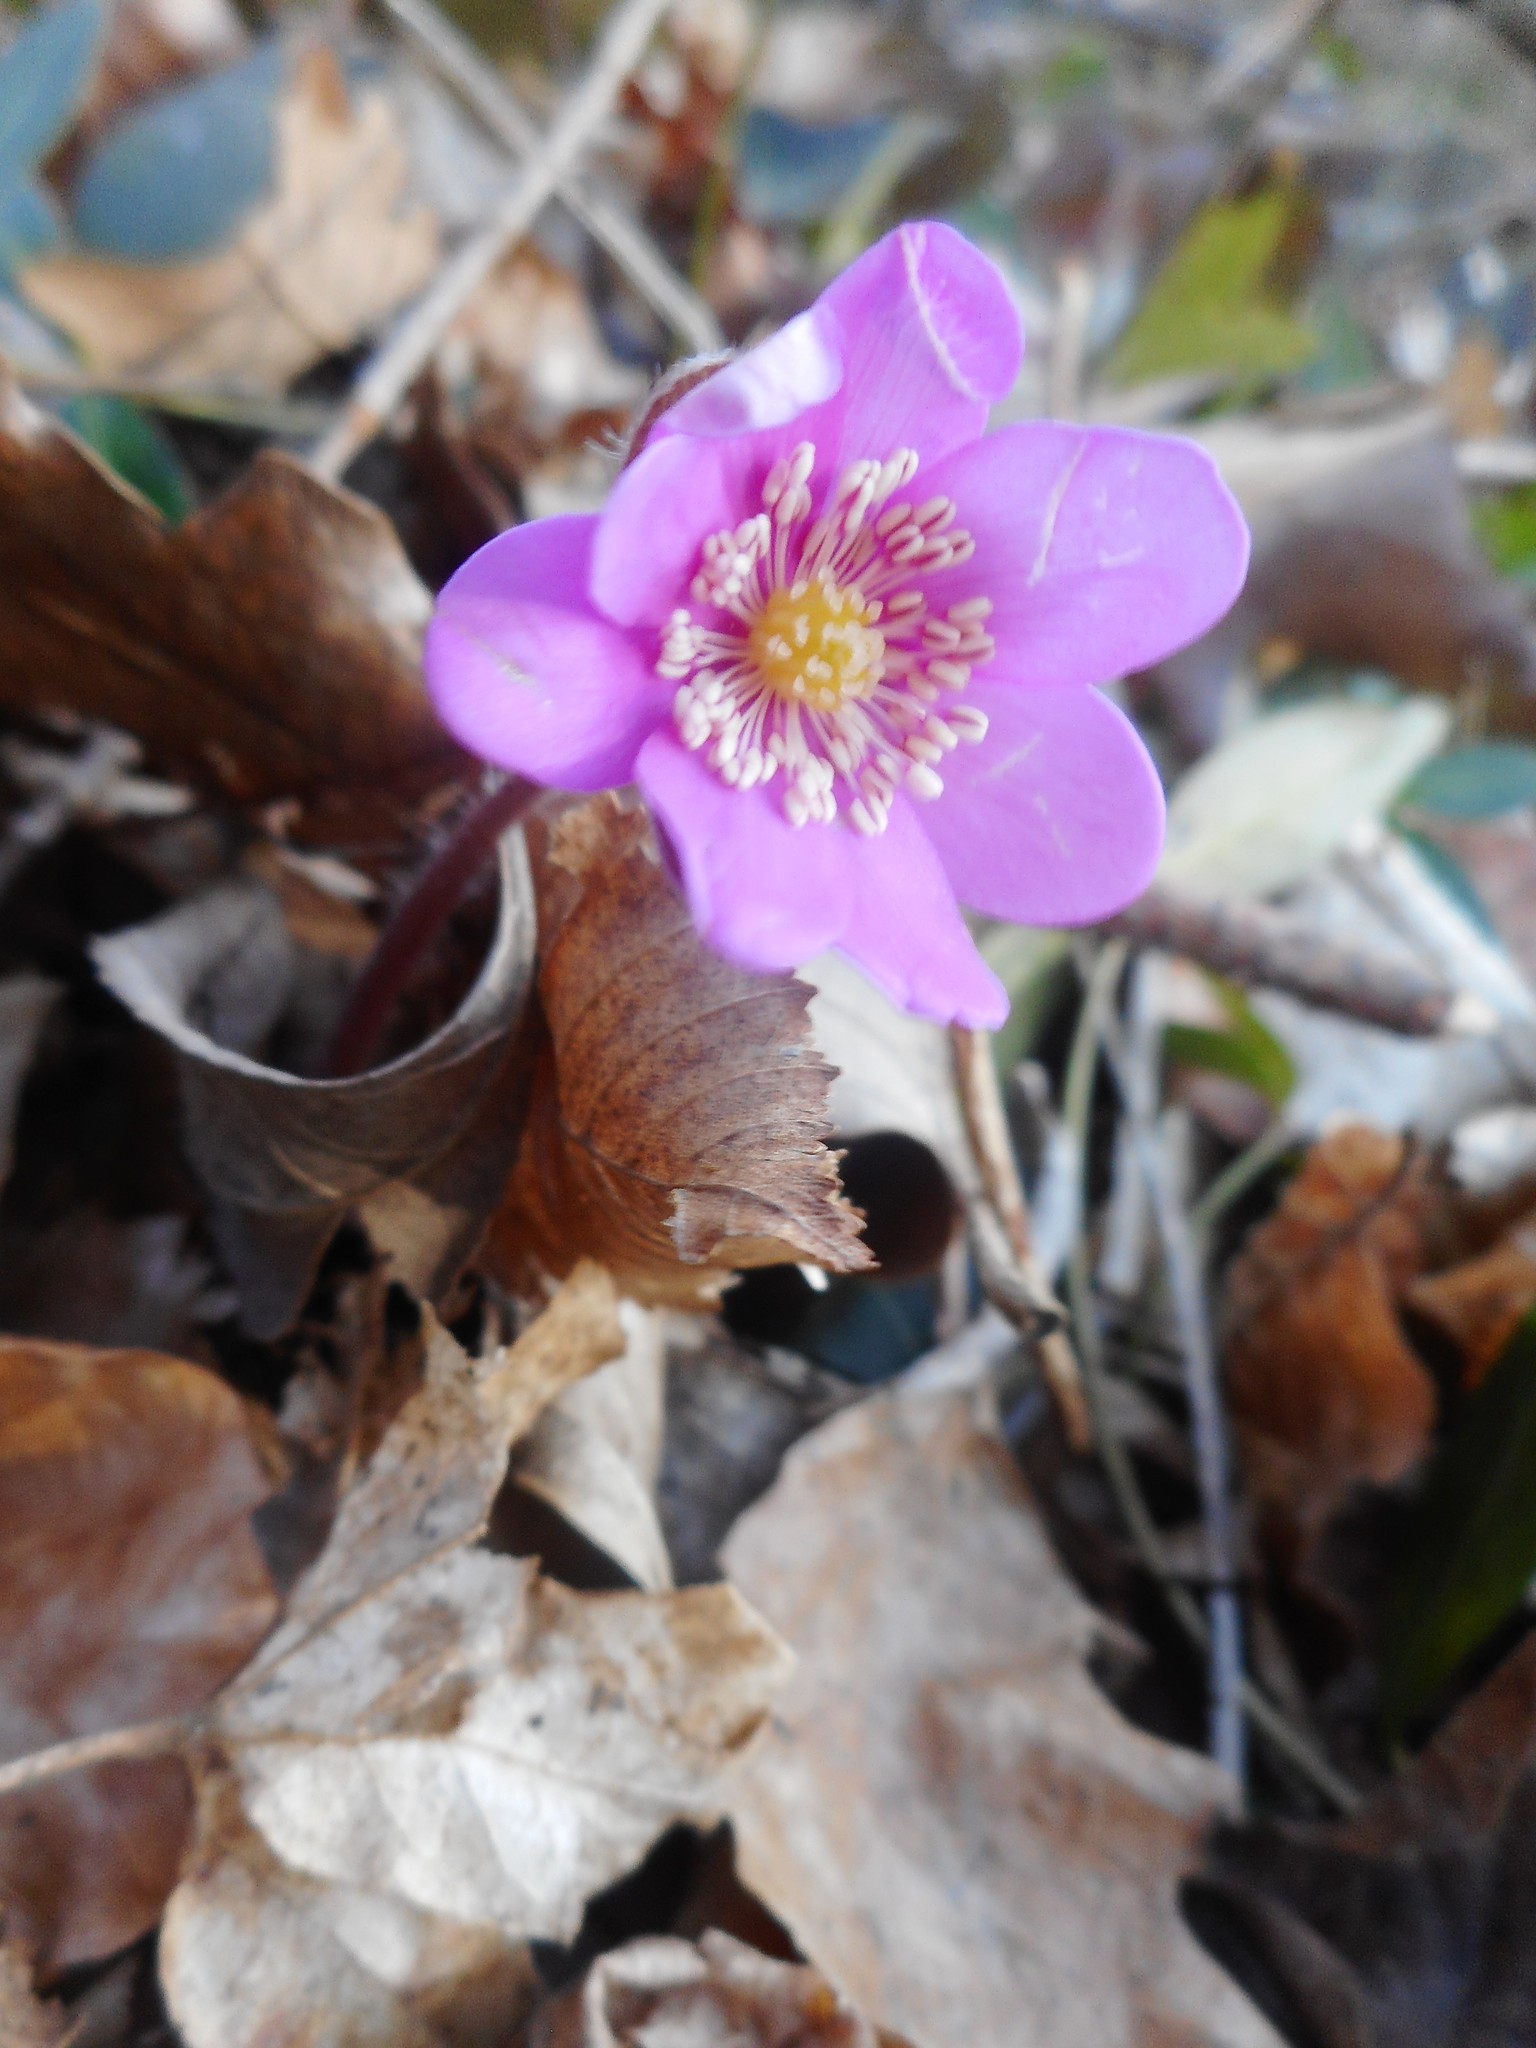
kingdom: Plantae
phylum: Tracheophyta
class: Magnoliopsida
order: Ranunculales
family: Ranunculaceae
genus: Hepatica
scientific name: Hepatica nobilis
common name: Liverleaf
